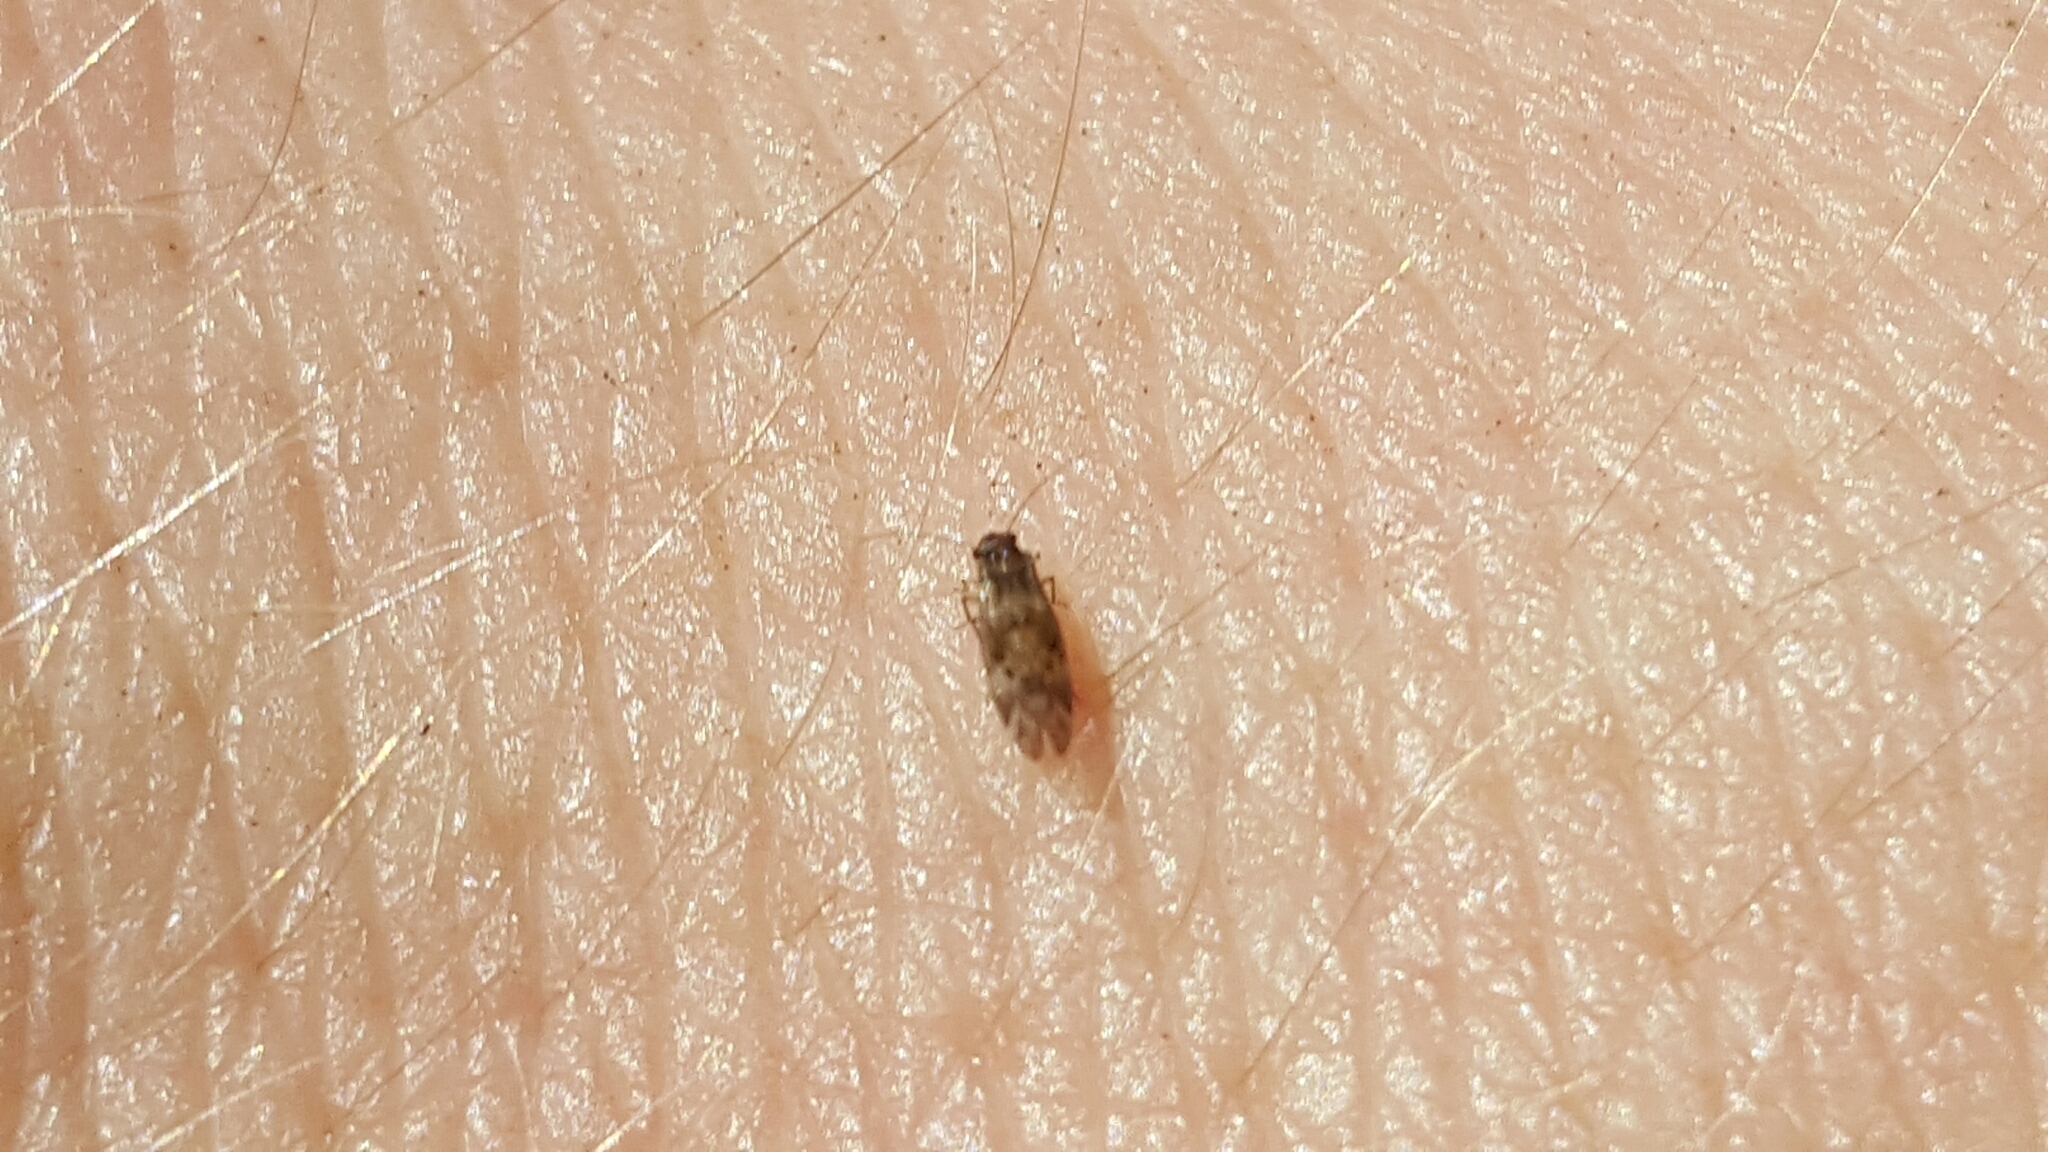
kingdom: Animalia
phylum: Arthropoda
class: Insecta
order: Psocodea
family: Peripsocidae
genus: Peripsocus
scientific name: Peripsocus subfasciatus
